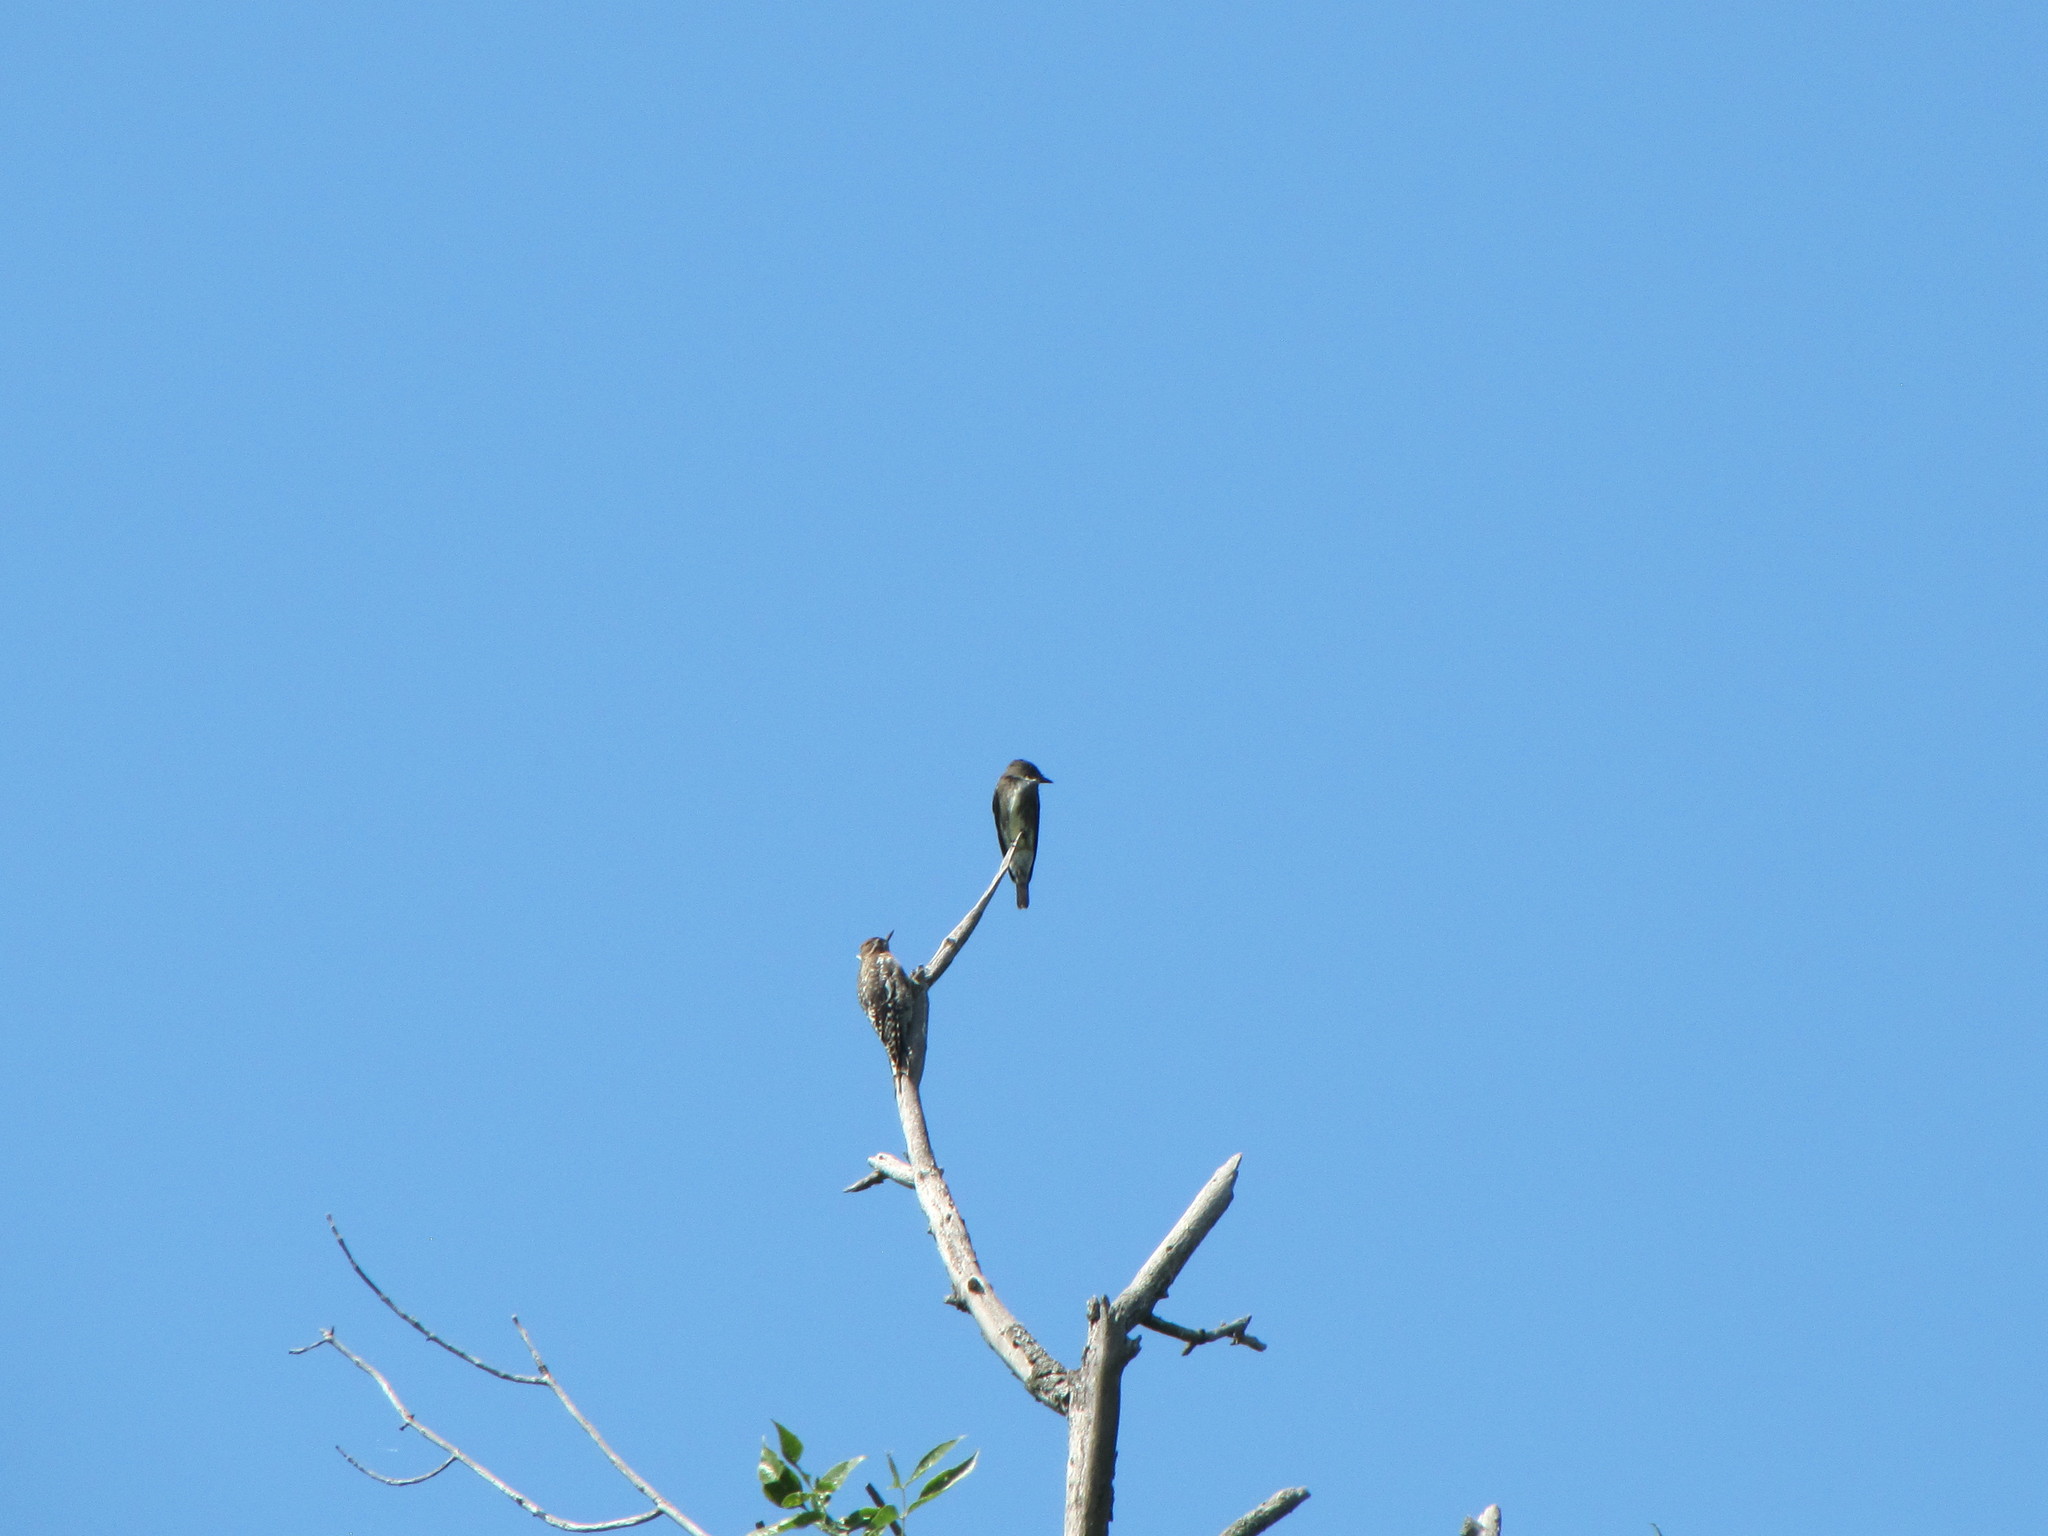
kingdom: Animalia
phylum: Chordata
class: Aves
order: Piciformes
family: Picidae
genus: Sphyrapicus
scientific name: Sphyrapicus varius
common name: Yellow-bellied sapsucker
